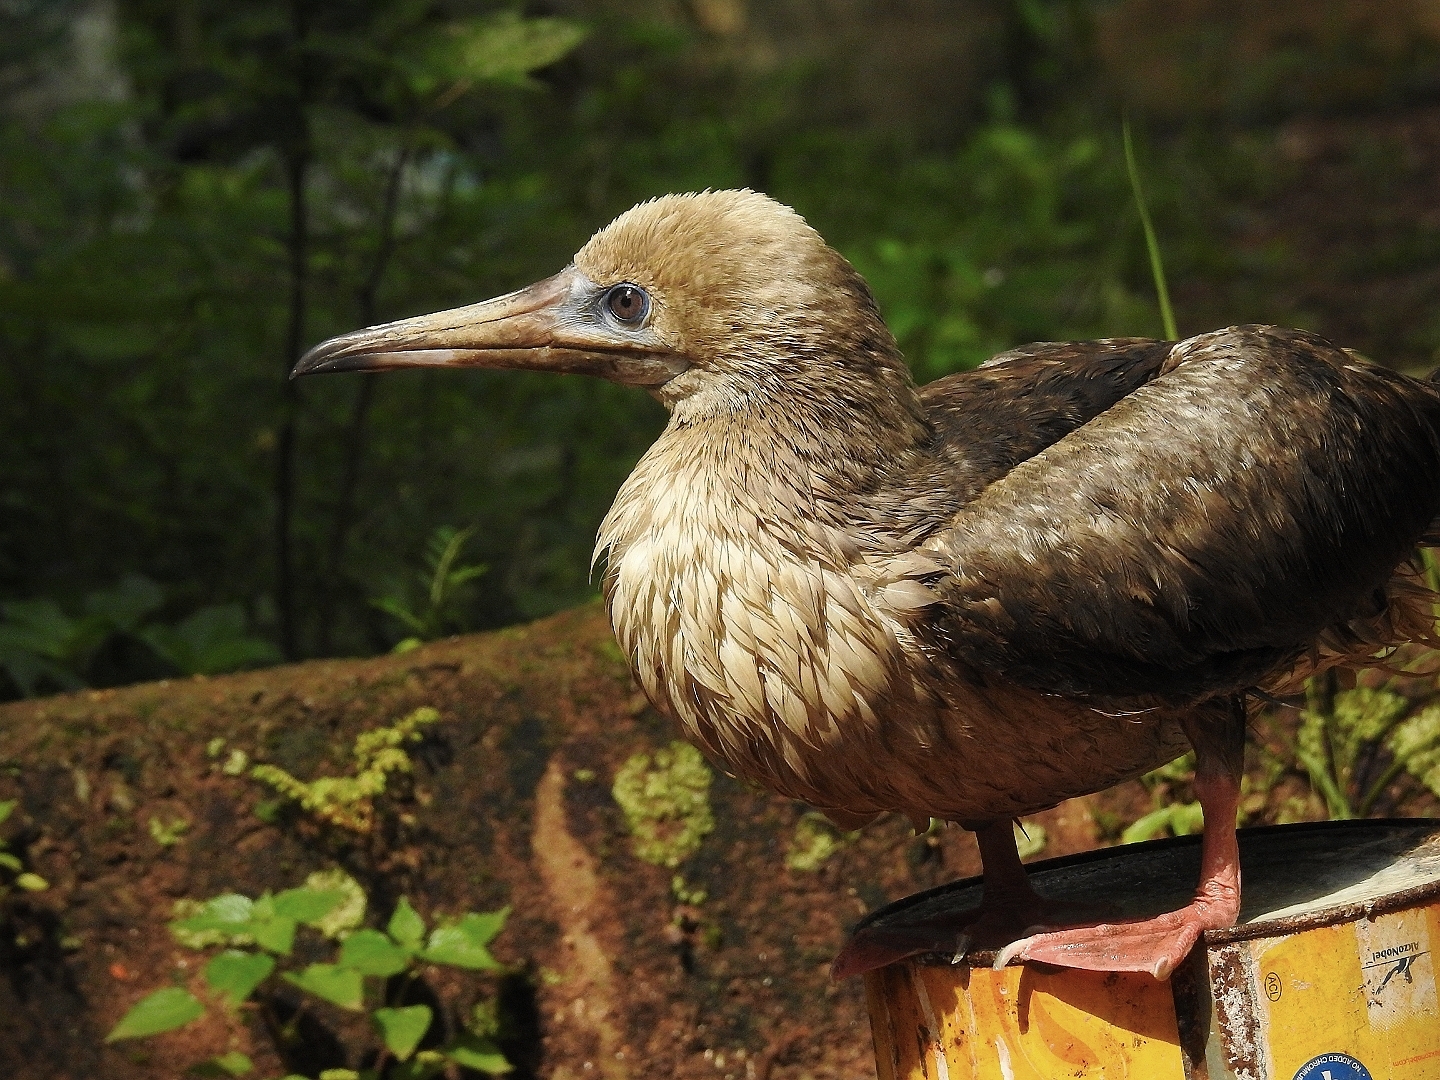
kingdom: Animalia
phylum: Chordata
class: Aves
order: Suliformes
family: Sulidae
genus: Sula
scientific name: Sula sula
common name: Red-footed booby
